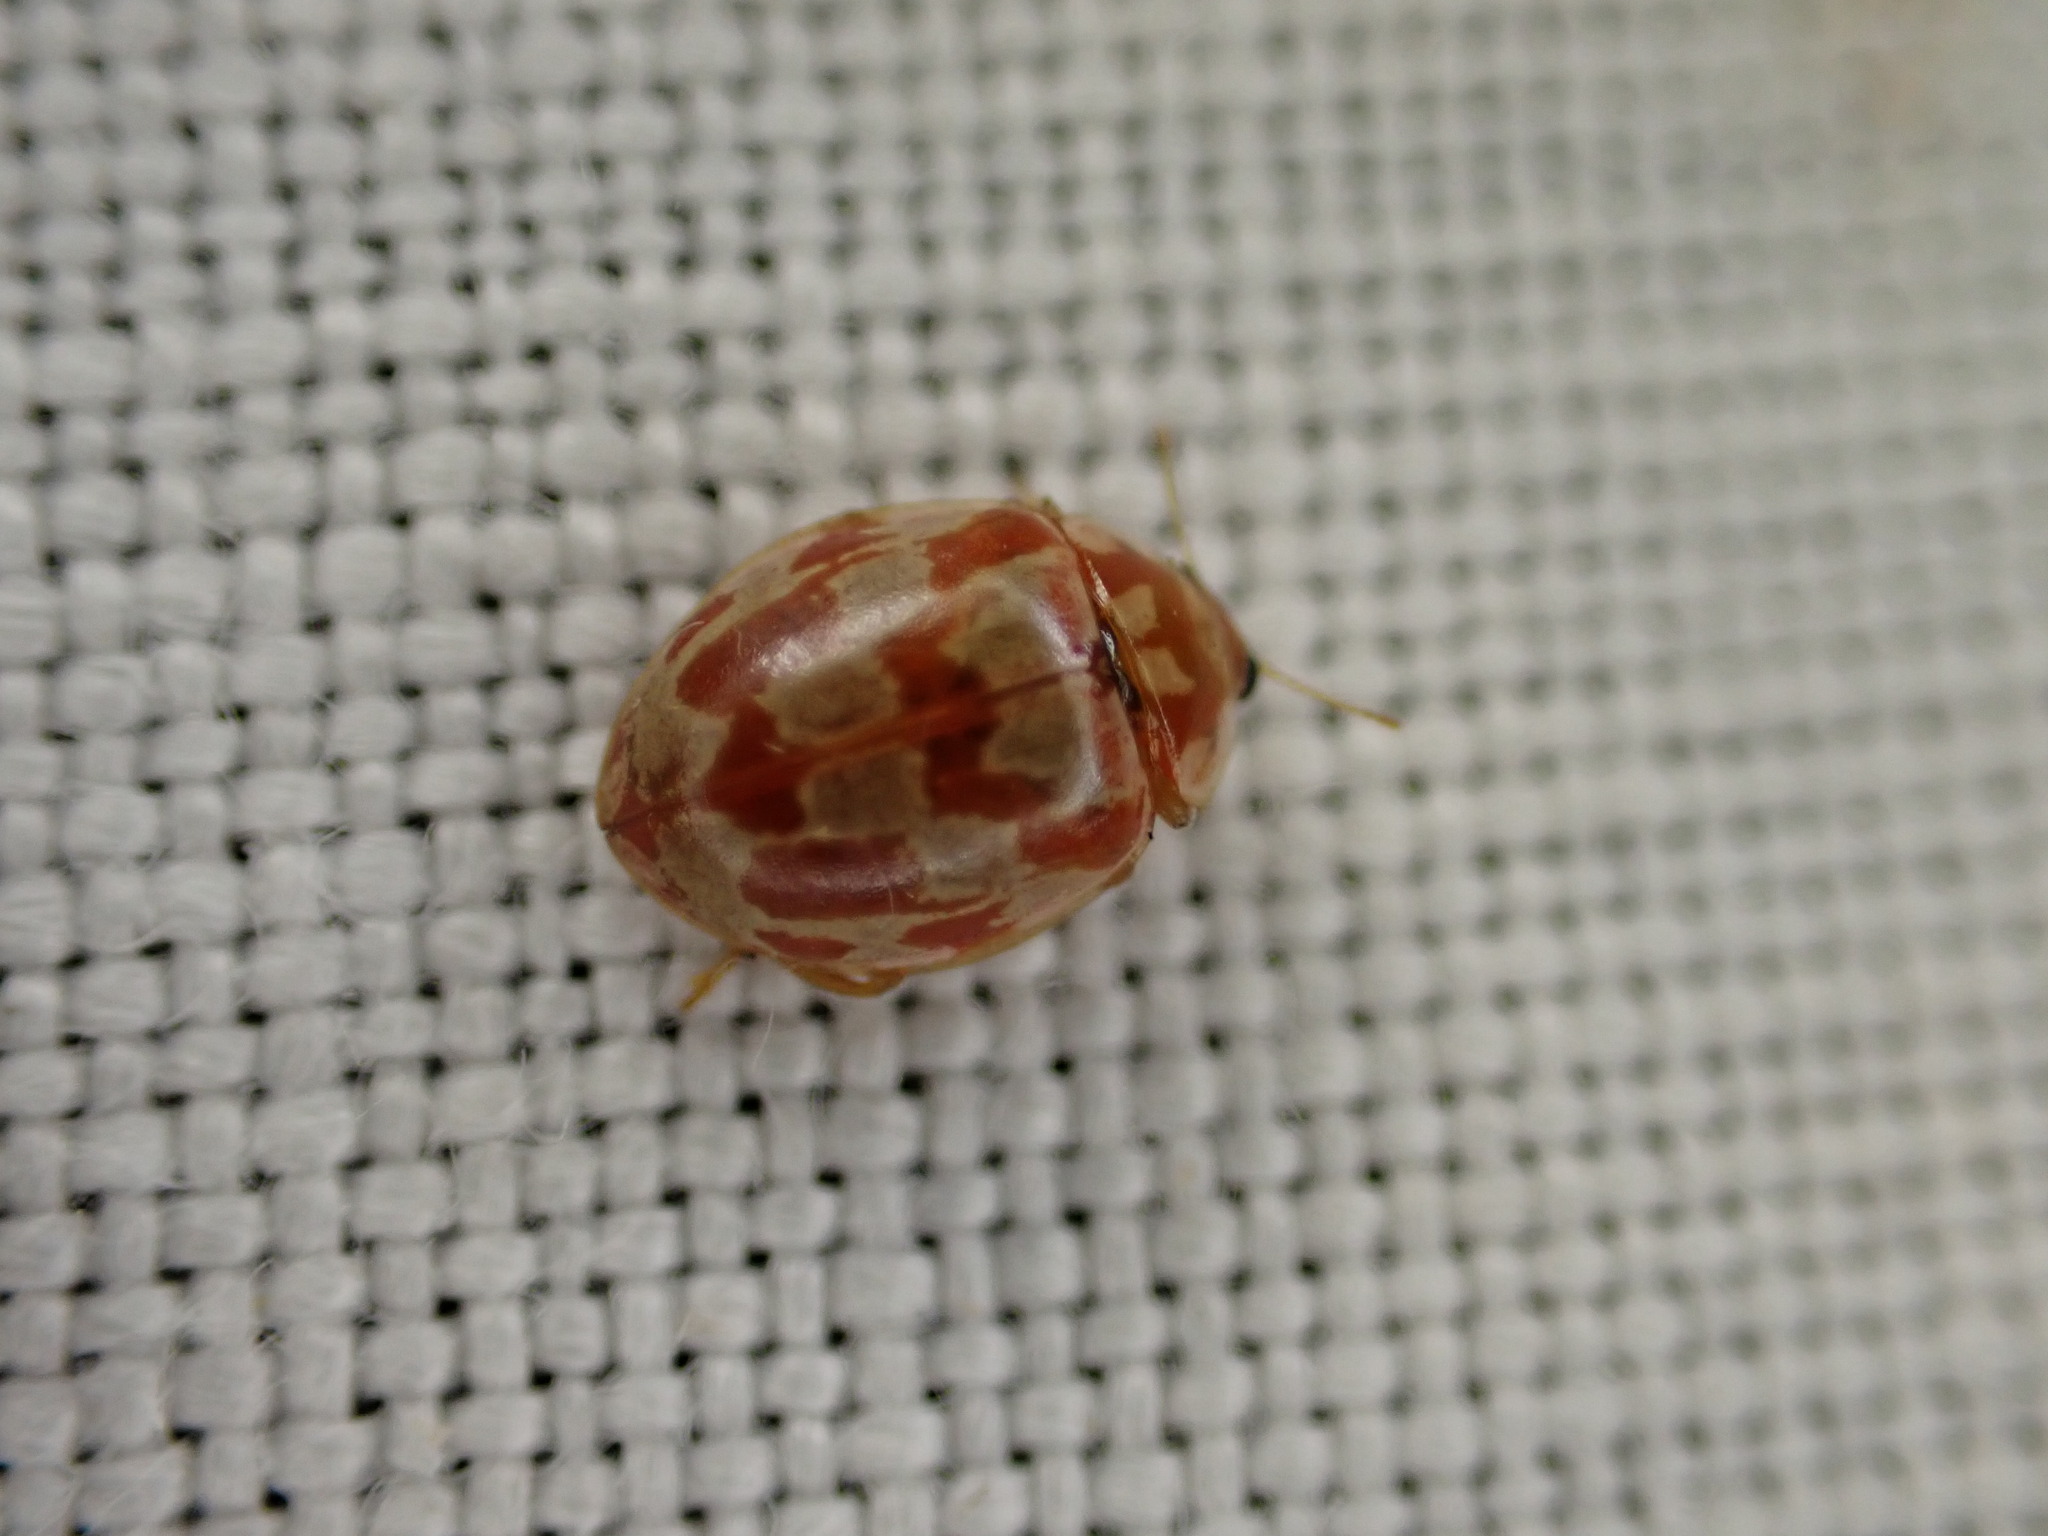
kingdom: Animalia
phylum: Arthropoda
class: Insecta
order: Coleoptera
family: Coccinellidae
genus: Myrrha
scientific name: Myrrha octodecimguttata
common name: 18-spot ladybird
